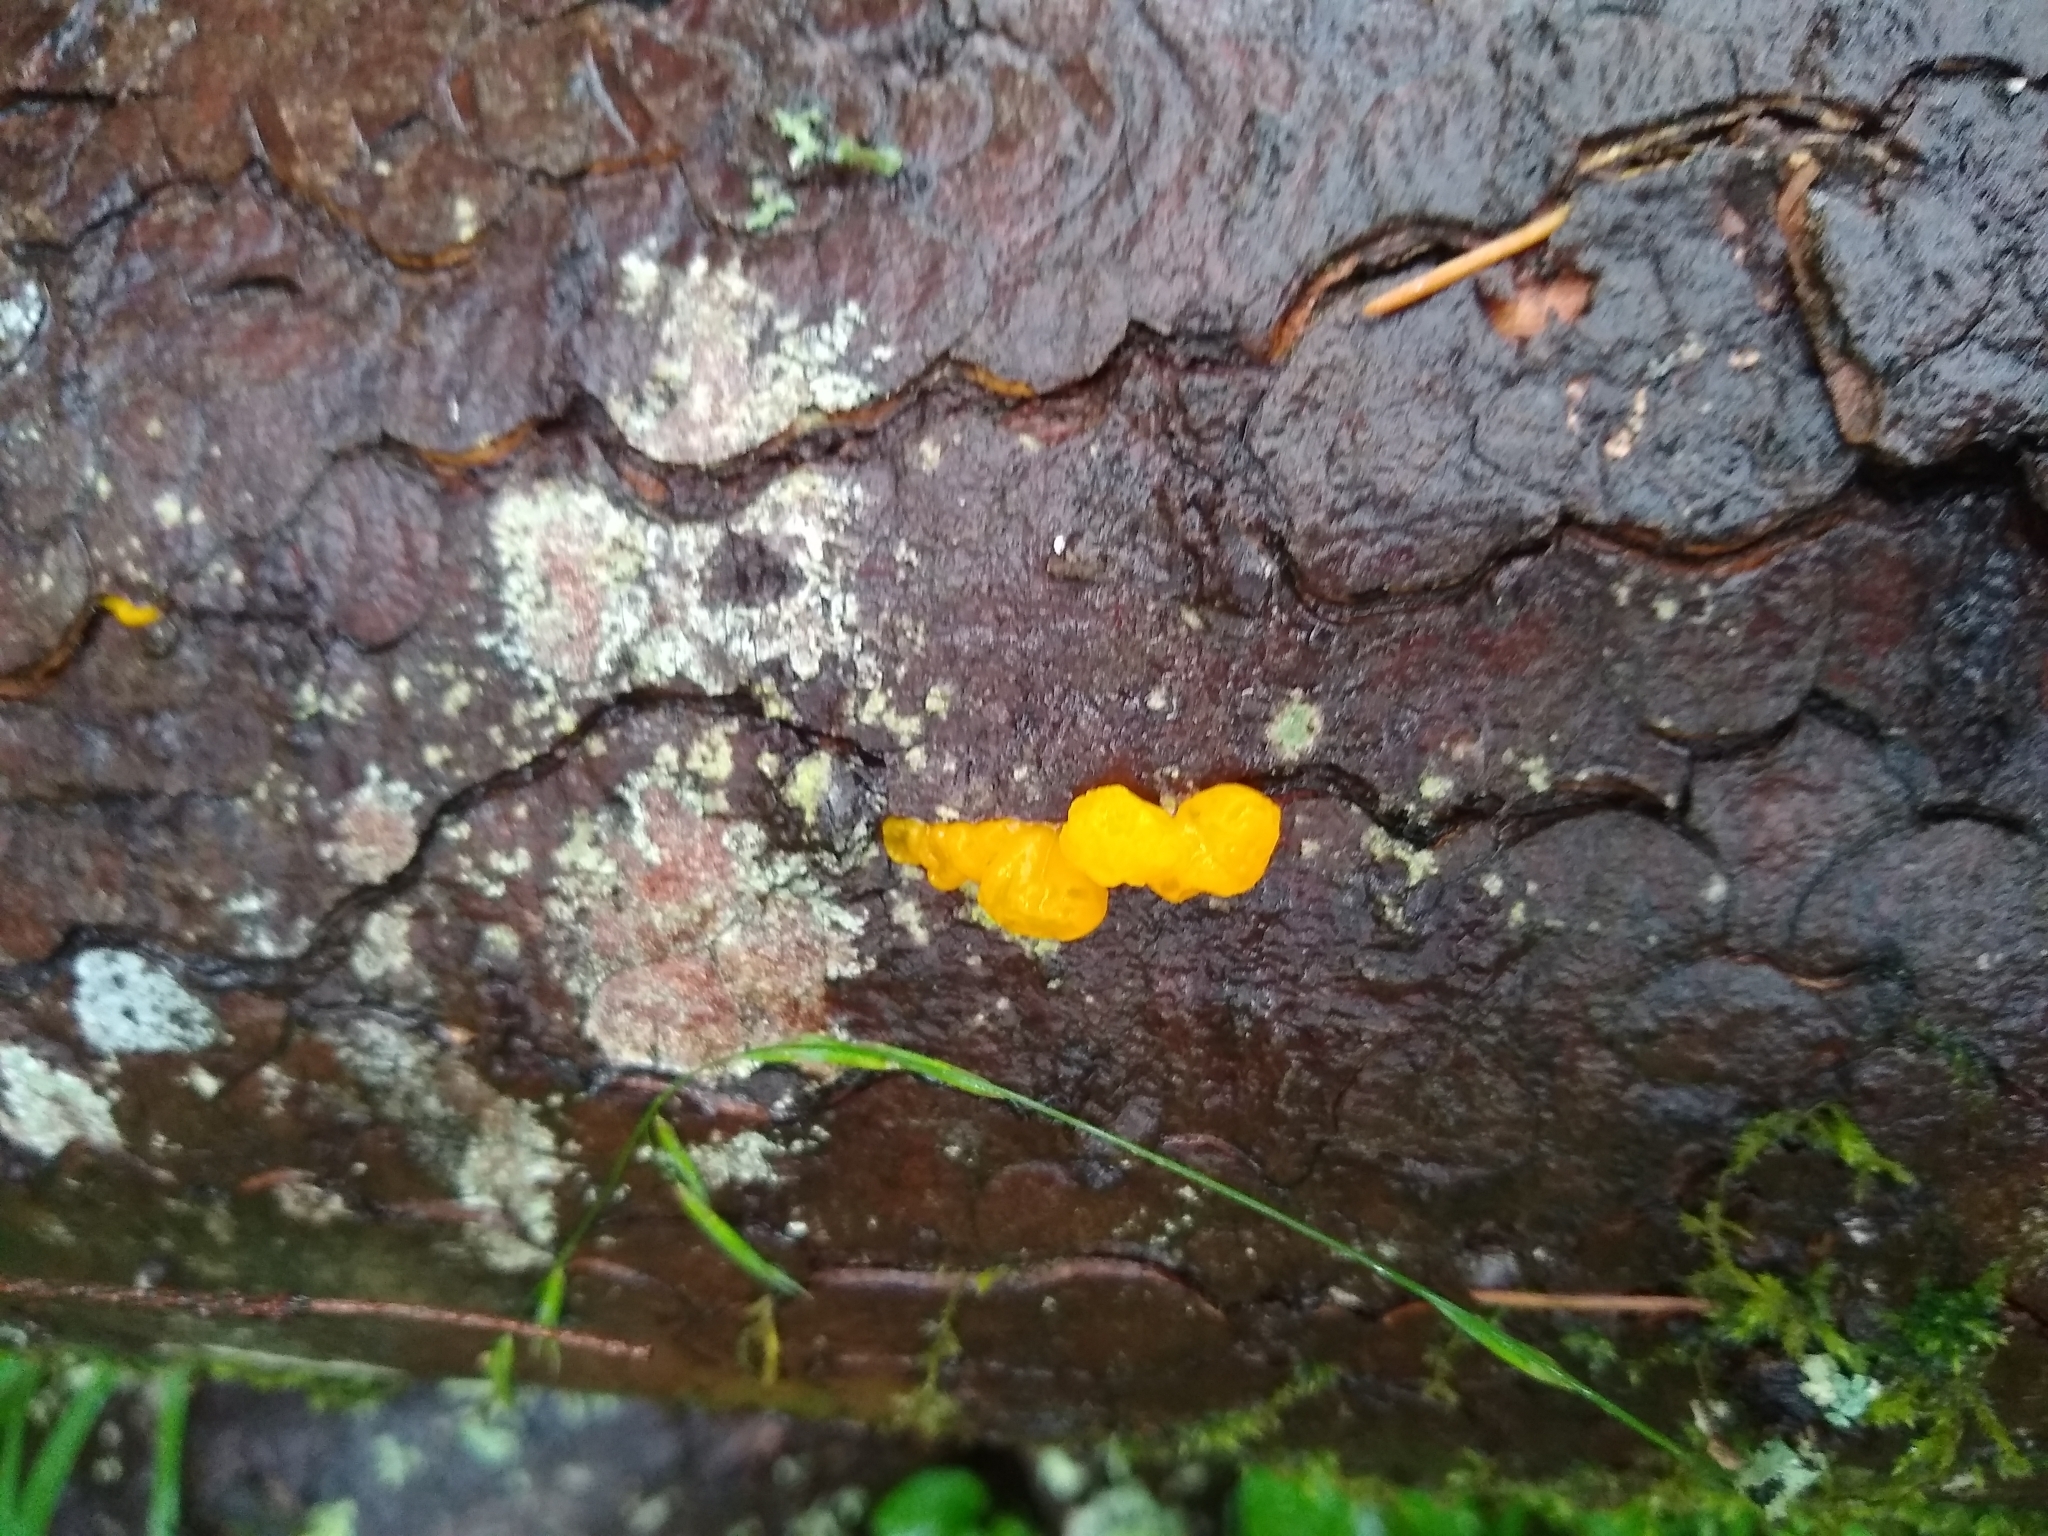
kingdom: Fungi
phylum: Basidiomycota
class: Dacrymycetes
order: Dacrymycetales
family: Dacrymycetaceae
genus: Dacrymyces
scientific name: Dacrymyces chrysospermus
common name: Orange jelly spot
